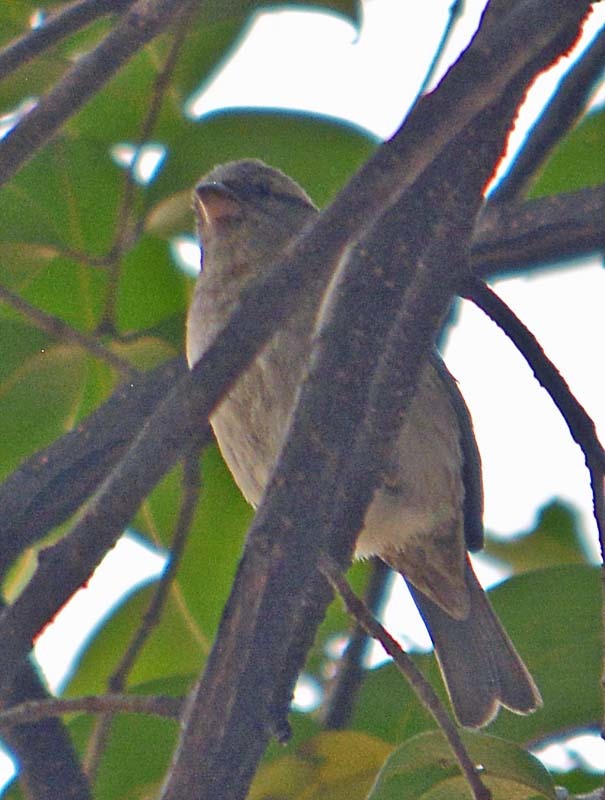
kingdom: Animalia
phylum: Chordata
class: Aves
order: Passeriformes
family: Passeridae
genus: Passer
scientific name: Passer domesticus
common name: House sparrow
